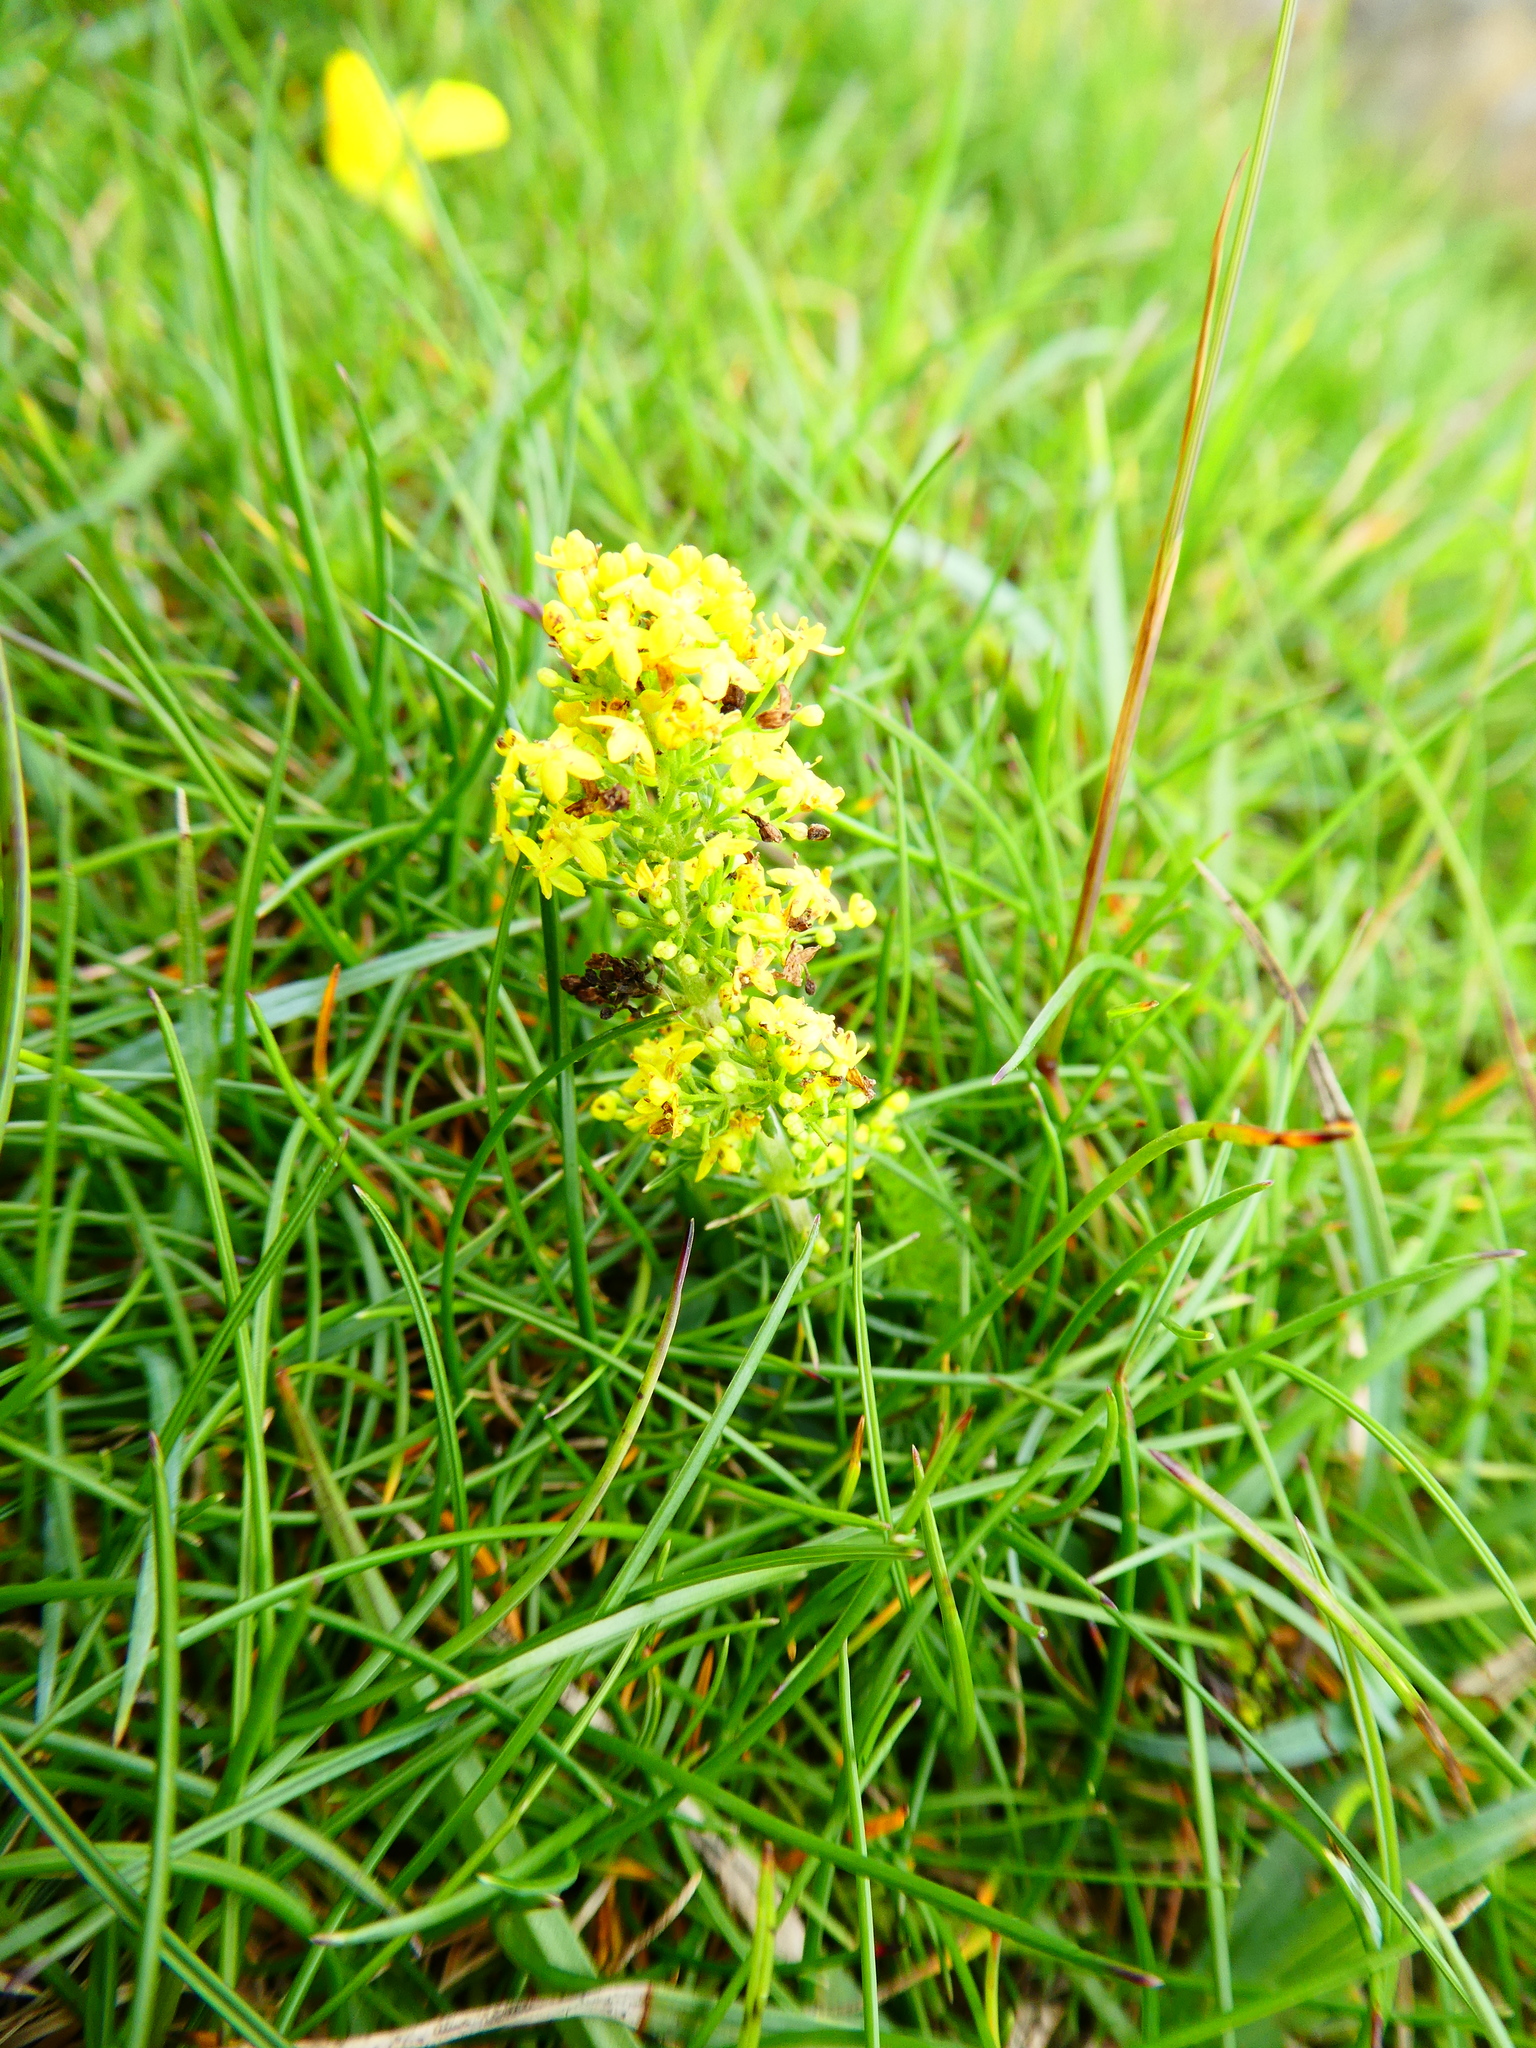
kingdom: Plantae
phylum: Tracheophyta
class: Magnoliopsida
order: Gentianales
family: Rubiaceae
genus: Galium
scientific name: Galium verum
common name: Lady's bedstraw
